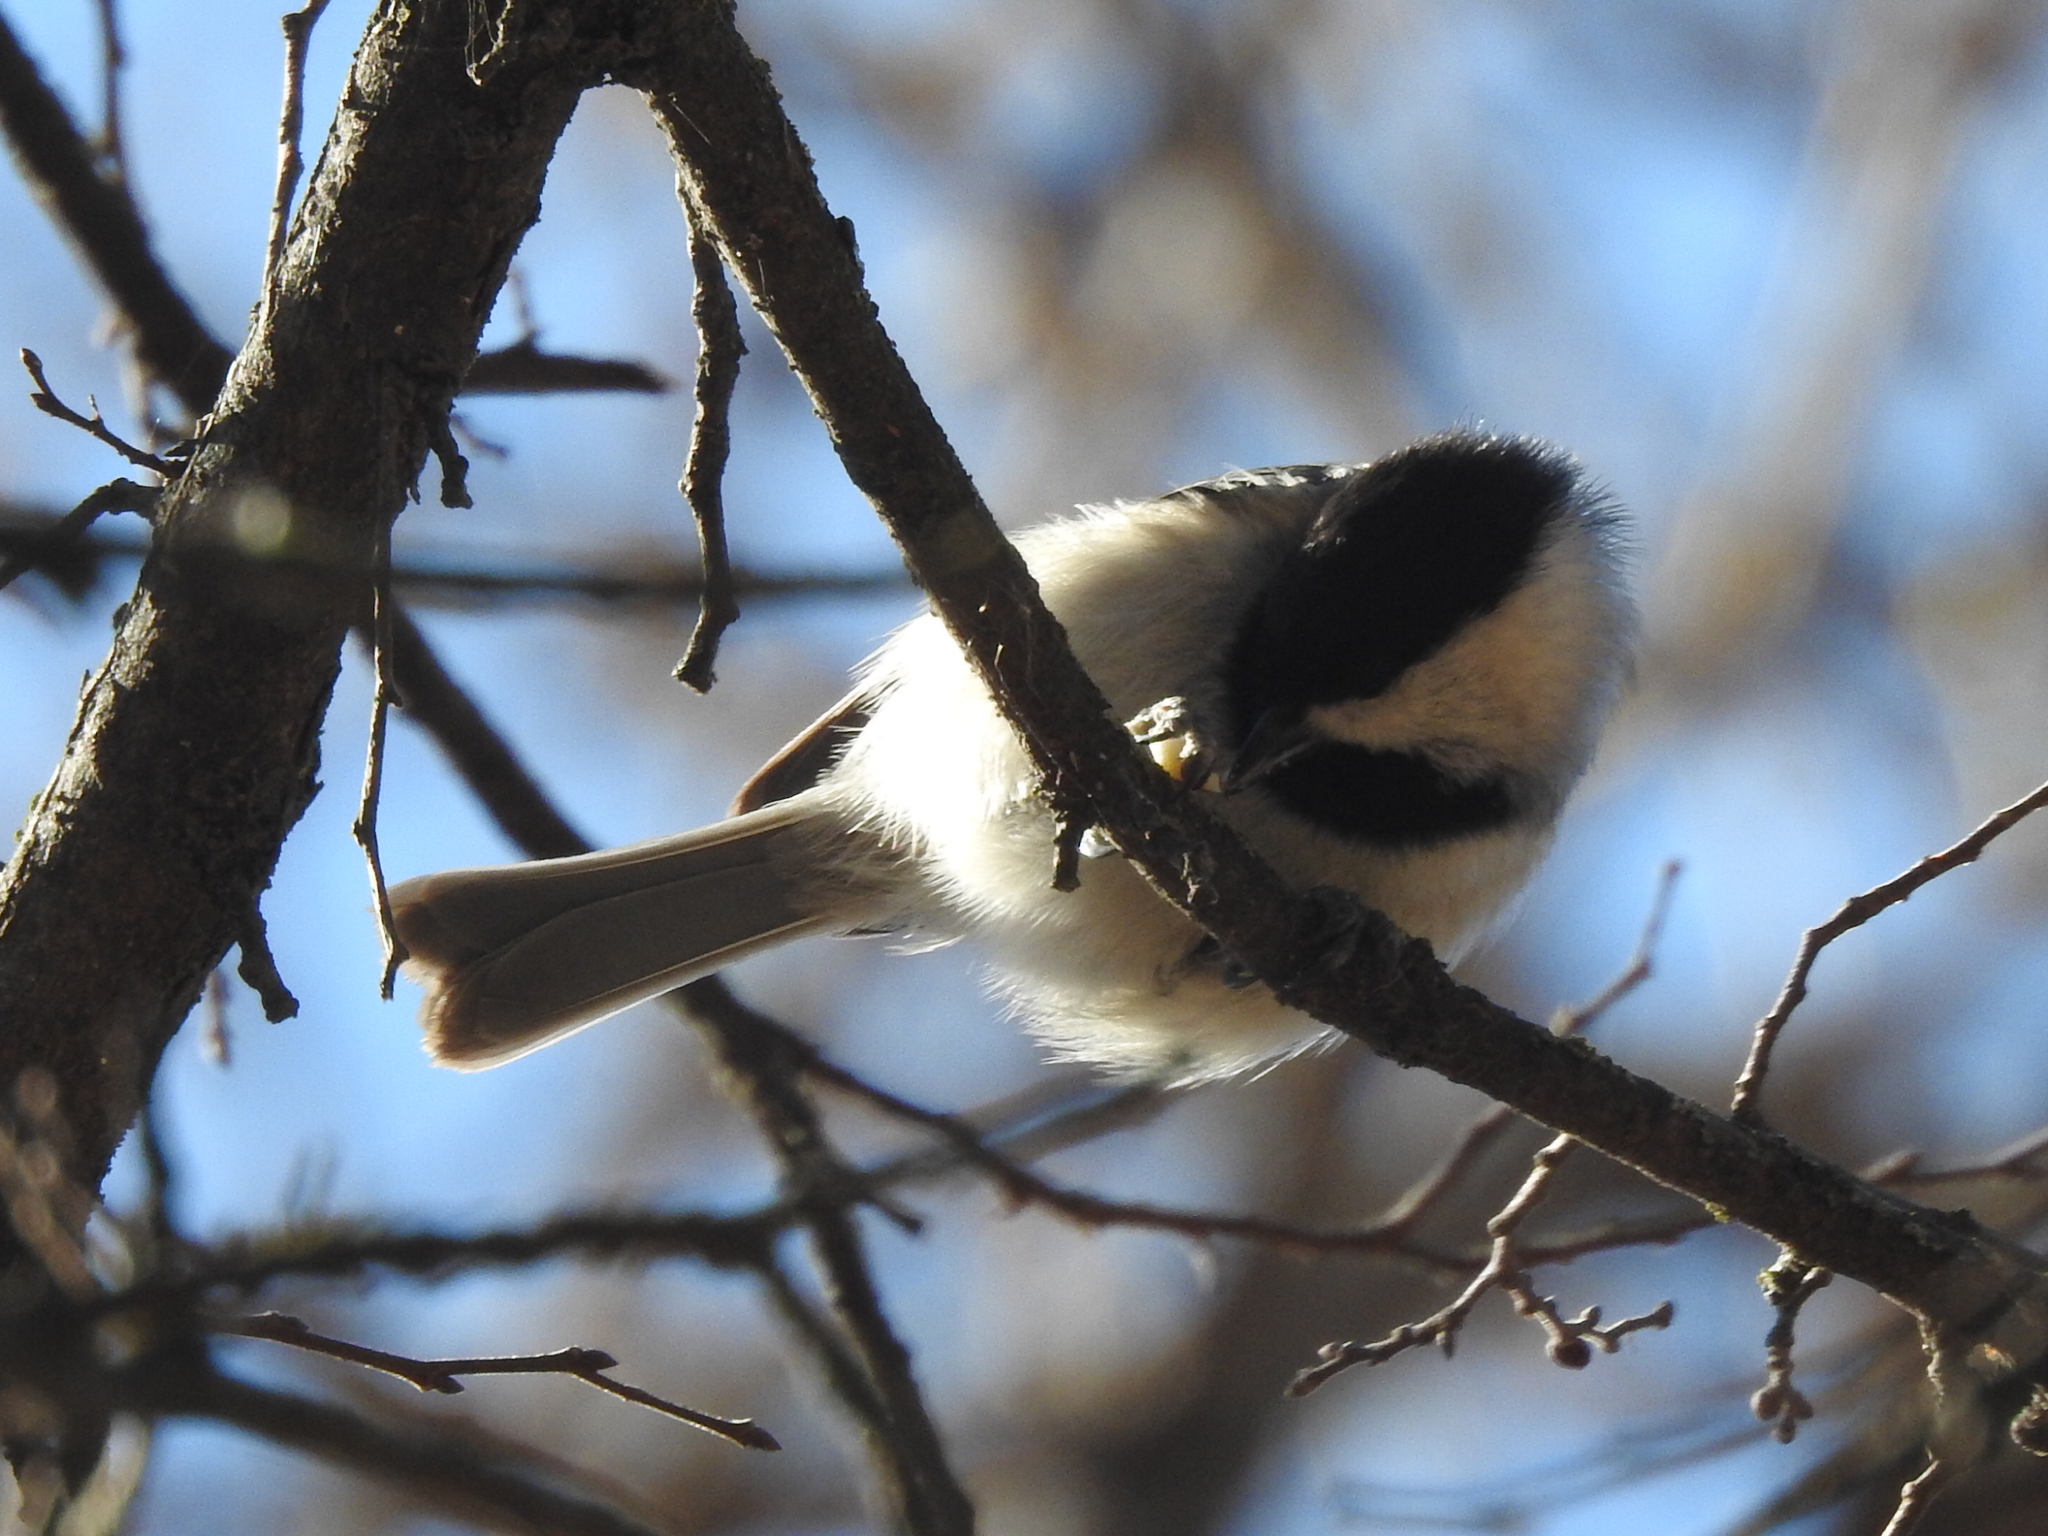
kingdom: Animalia
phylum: Chordata
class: Aves
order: Passeriformes
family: Paridae
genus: Poecile
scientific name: Poecile carolinensis
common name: Carolina chickadee
